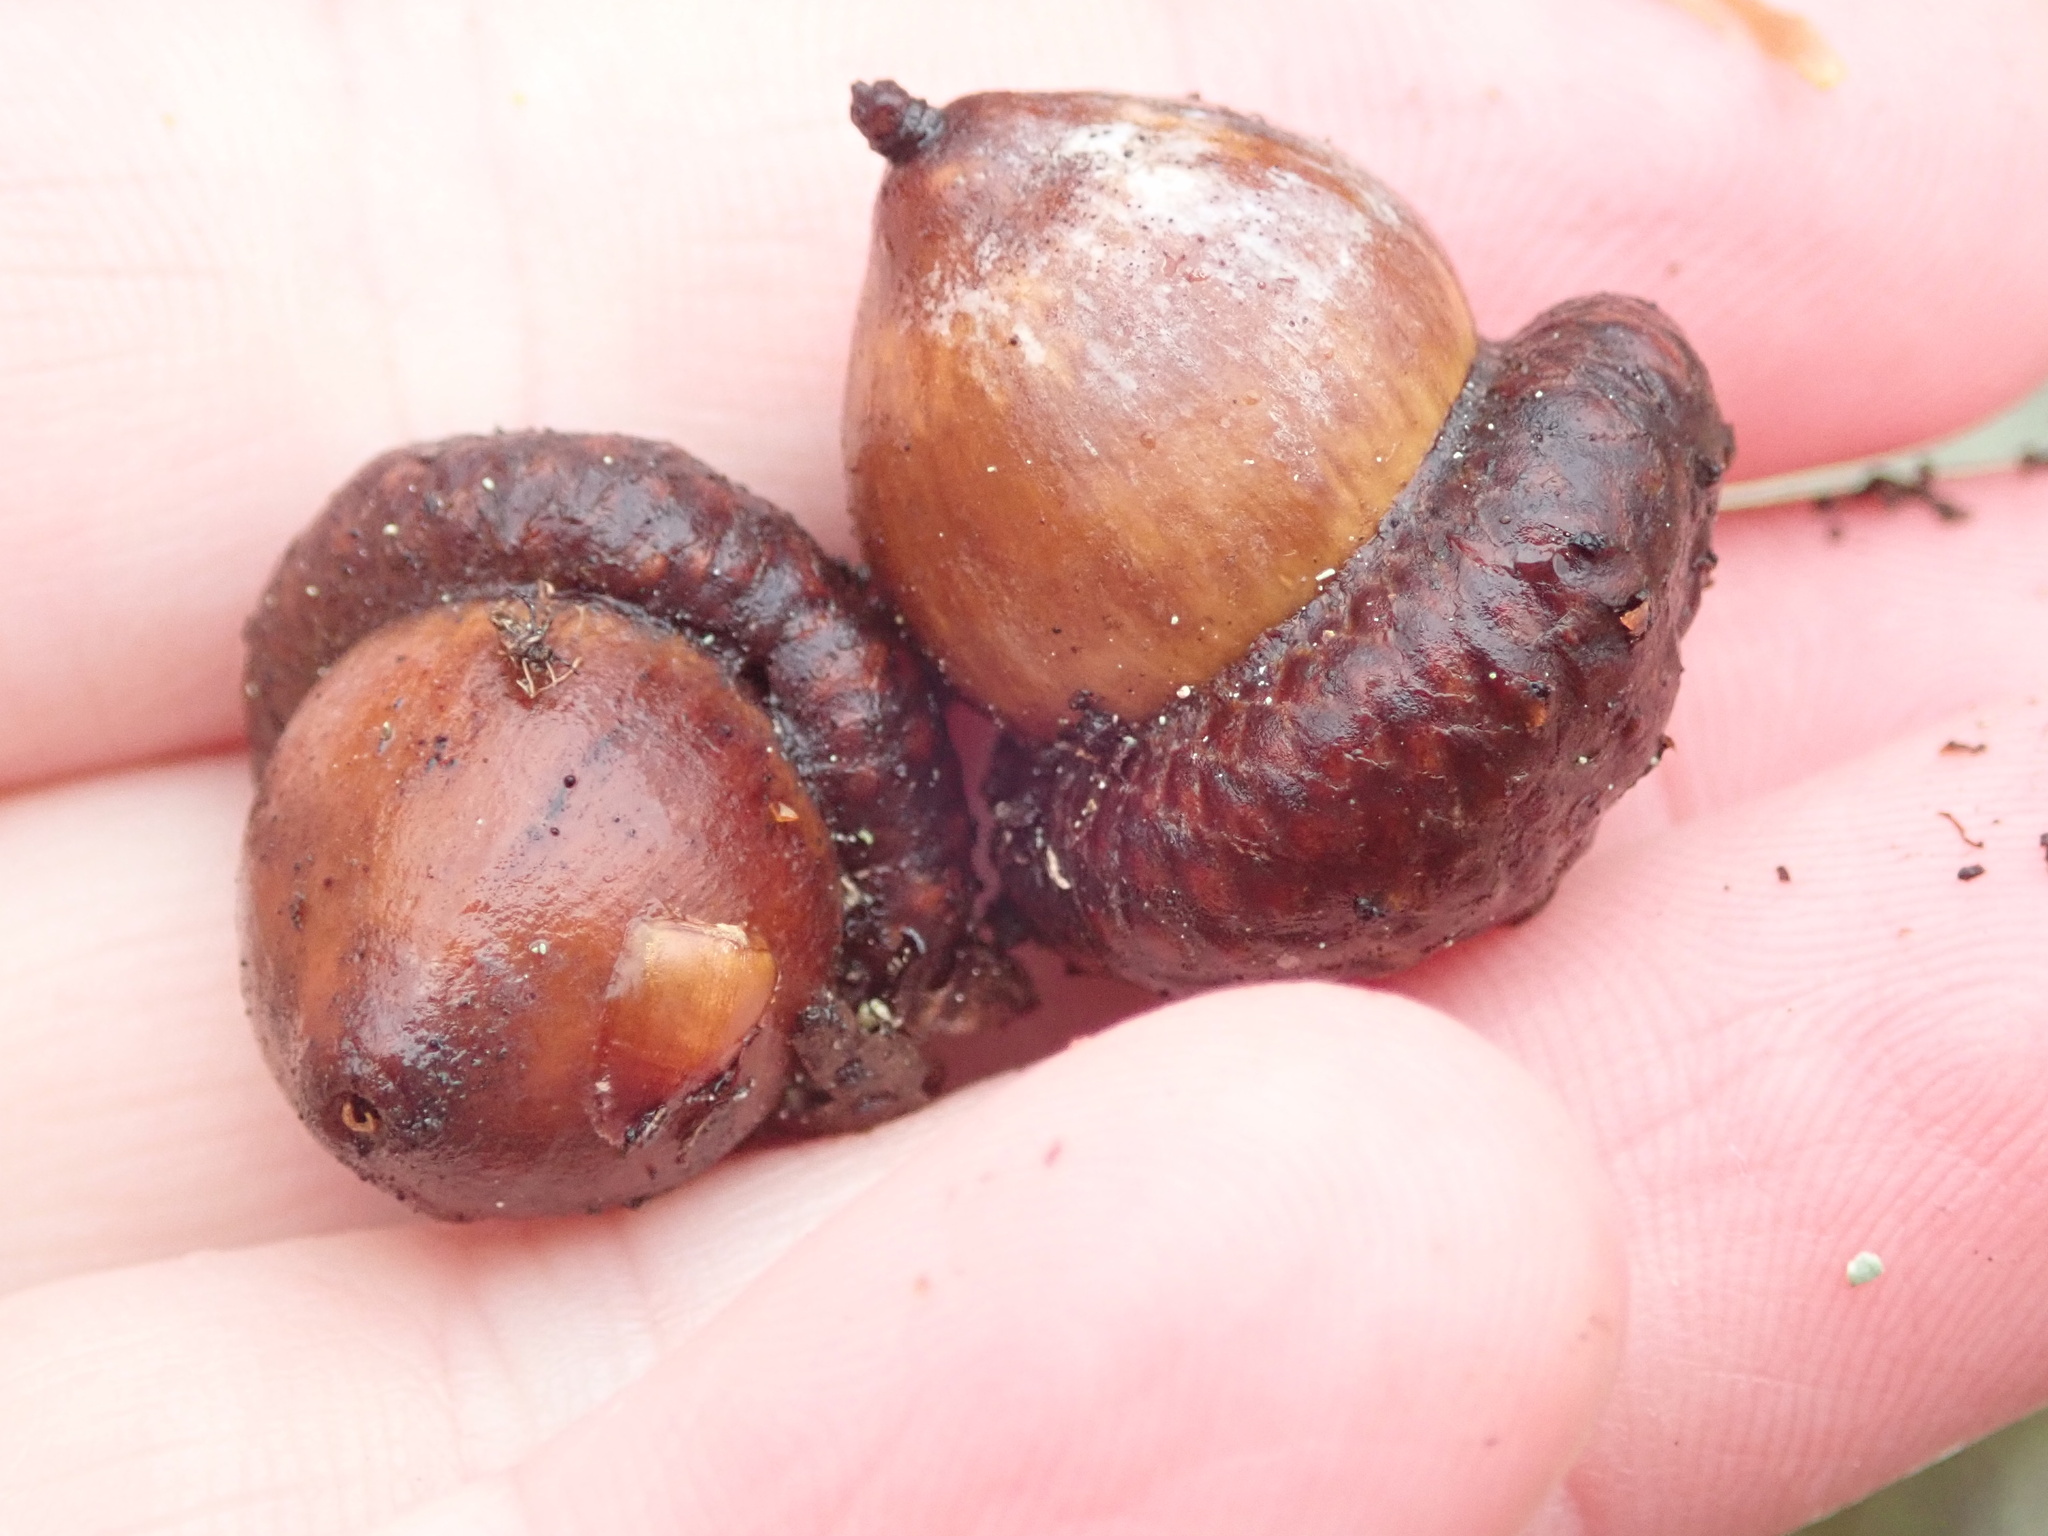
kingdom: Plantae
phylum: Tracheophyta
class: Magnoliopsida
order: Fagales
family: Fagaceae
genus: Quercus
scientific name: Quercus rubra
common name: Red oak
